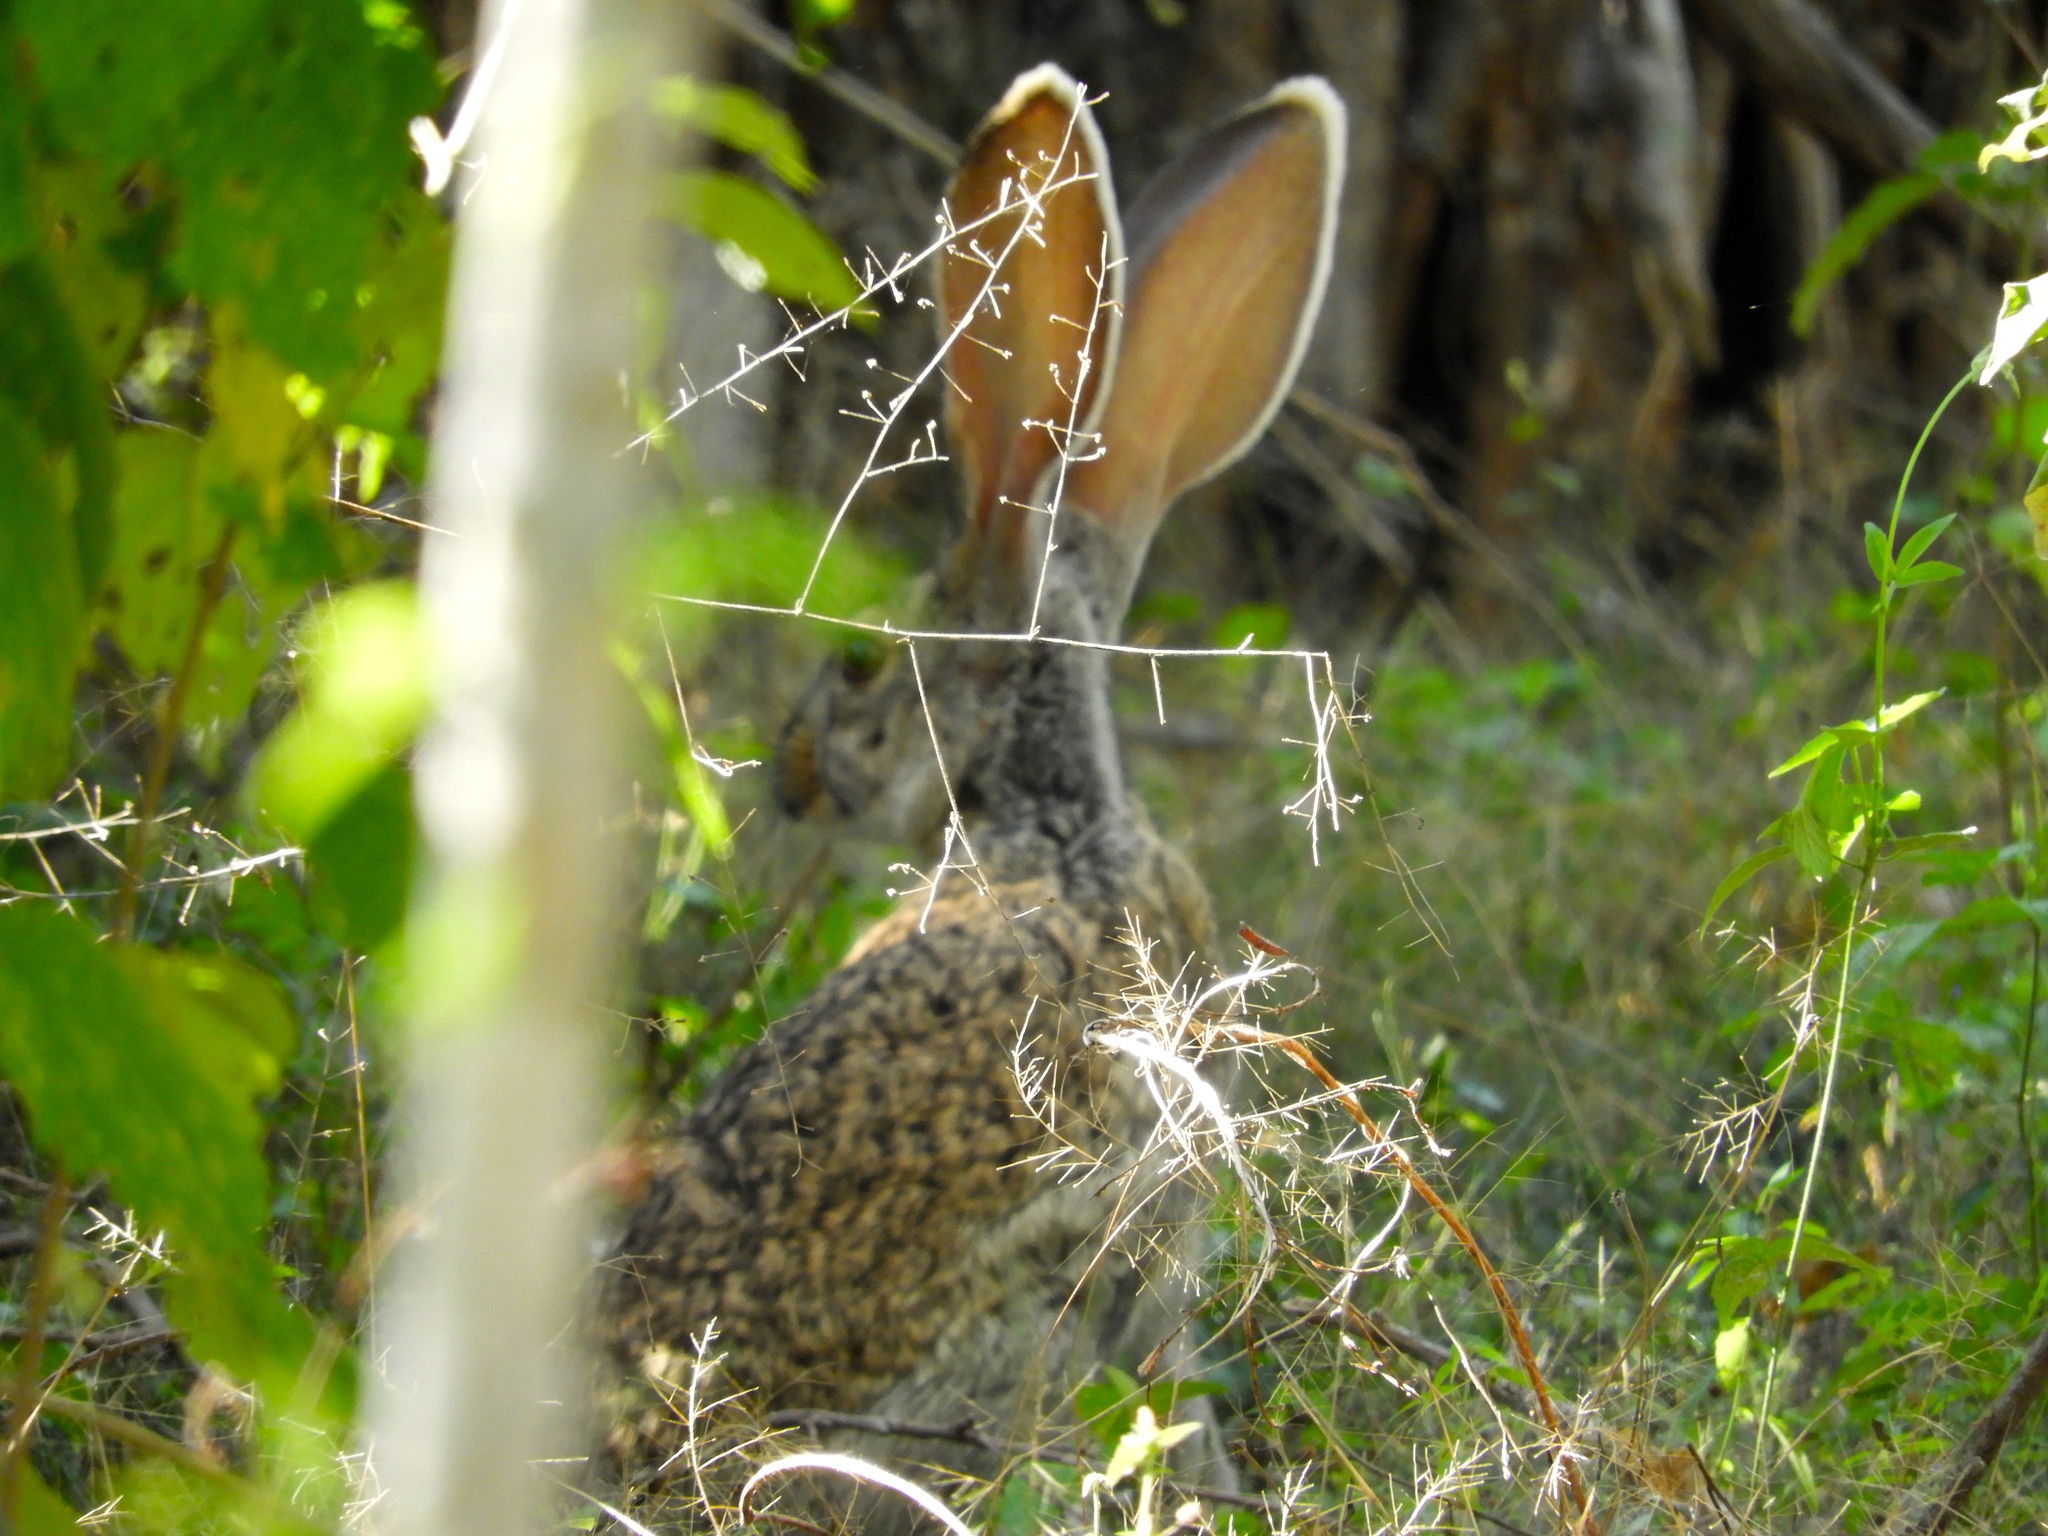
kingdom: Animalia
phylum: Chordata
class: Mammalia
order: Lagomorpha
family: Leporidae
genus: Lepus
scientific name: Lepus alleni
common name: Antelope jackrabbit
